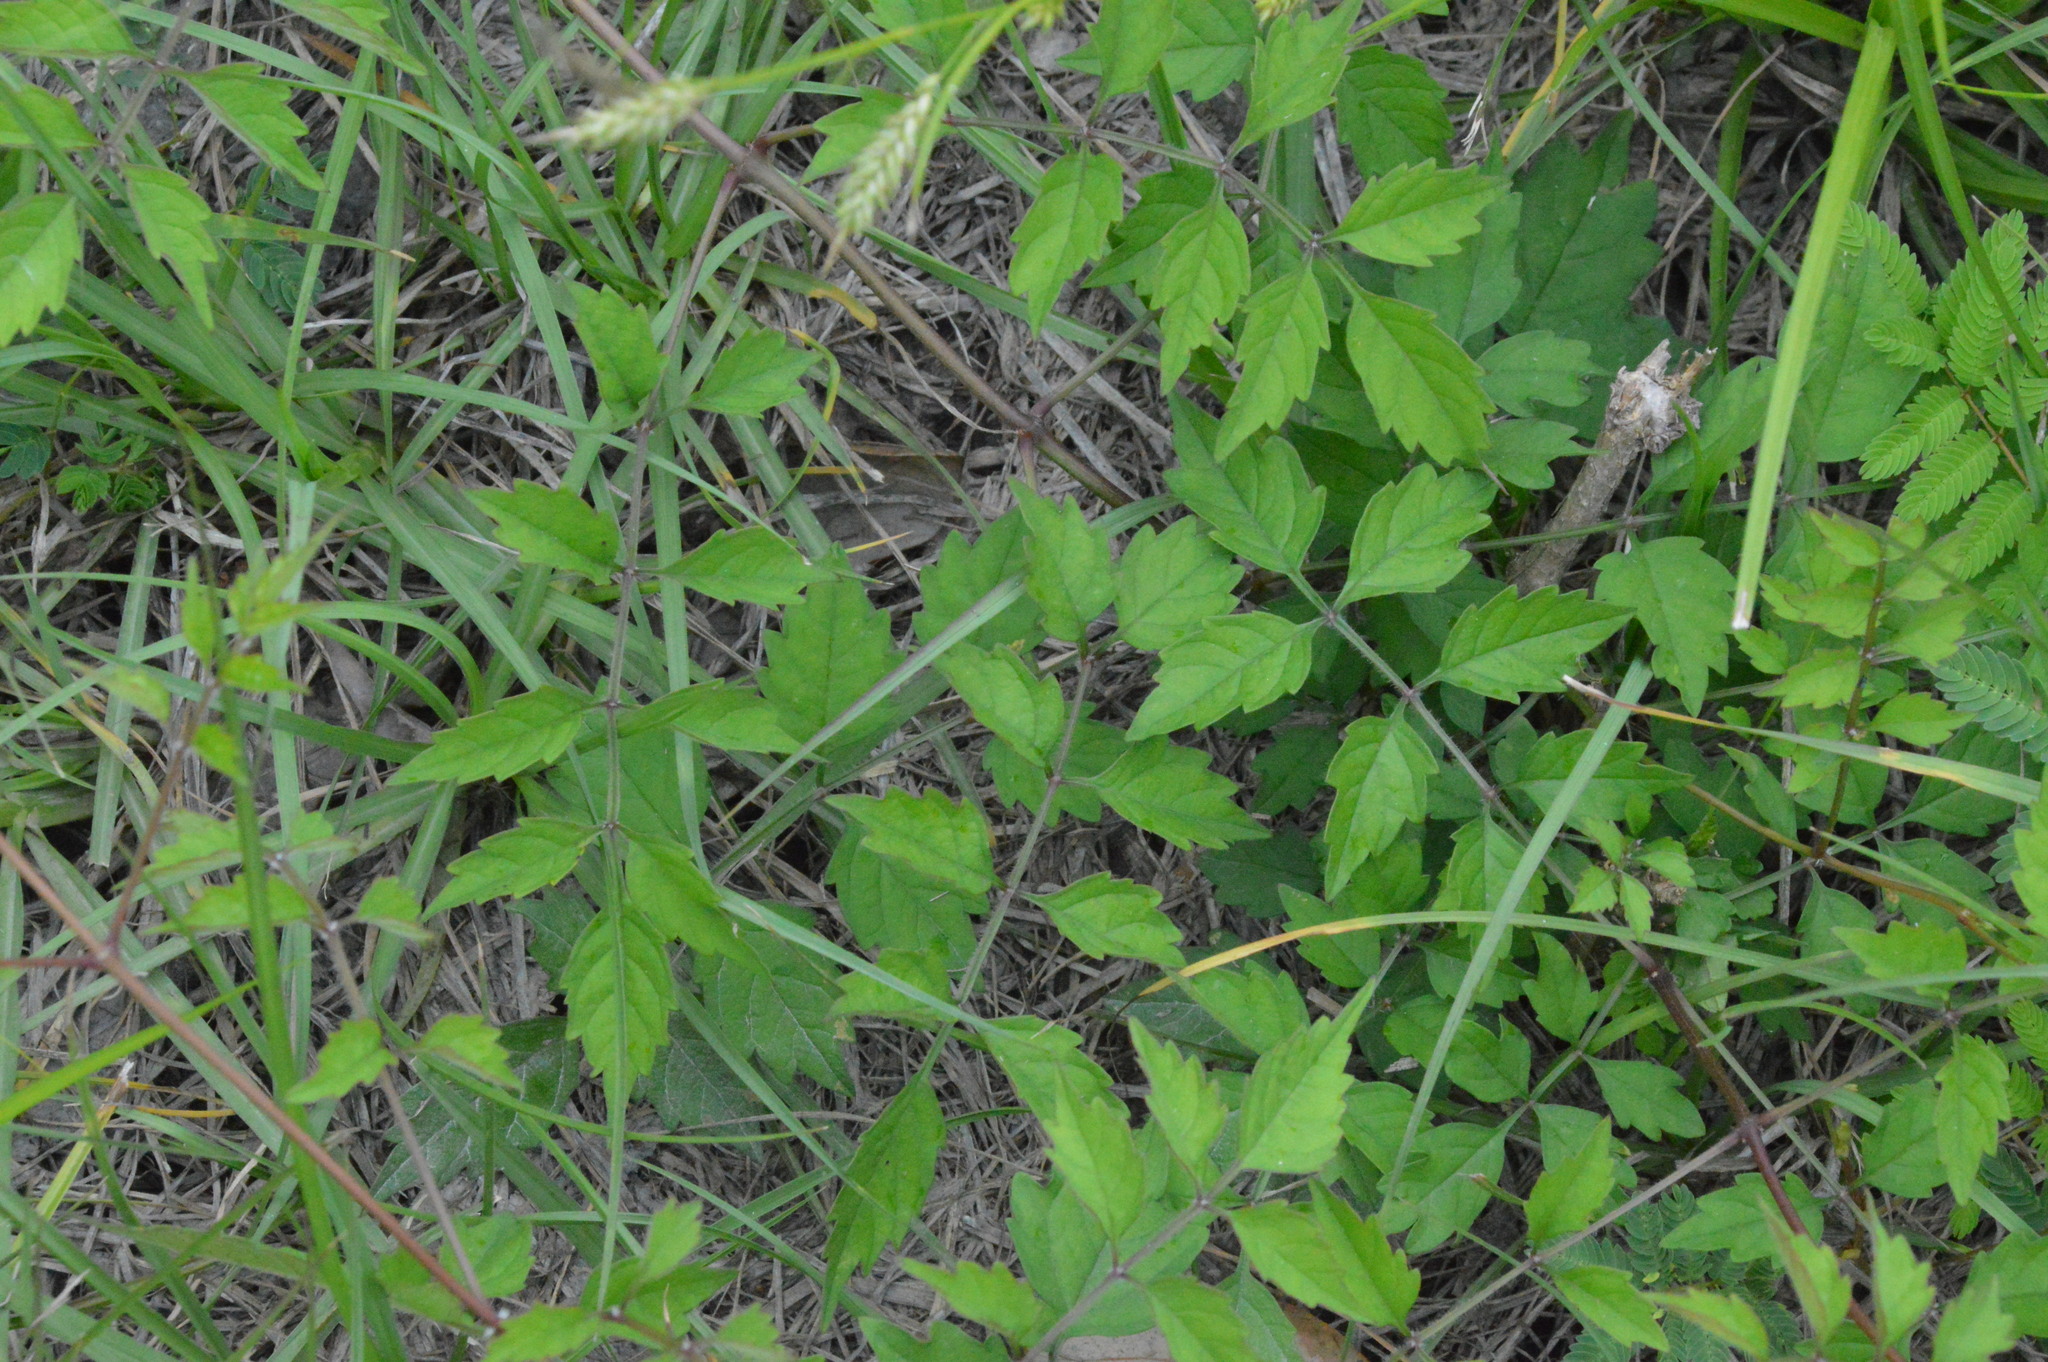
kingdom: Plantae
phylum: Tracheophyta
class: Magnoliopsida
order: Lamiales
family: Bignoniaceae
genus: Campsis
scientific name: Campsis radicans
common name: Trumpet-creeper
